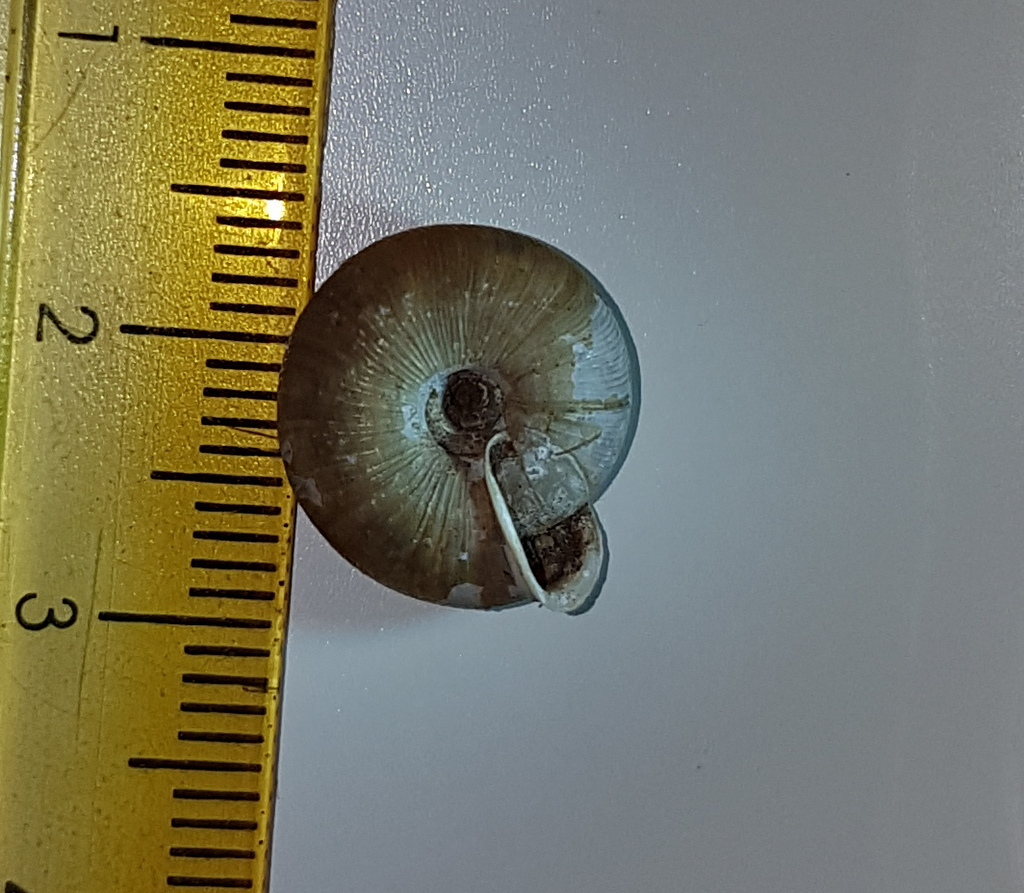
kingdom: Animalia
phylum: Mollusca
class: Gastropoda
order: Stylommatophora
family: Trissexodontidae
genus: Oestophora
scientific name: Oestophora lusitanica
